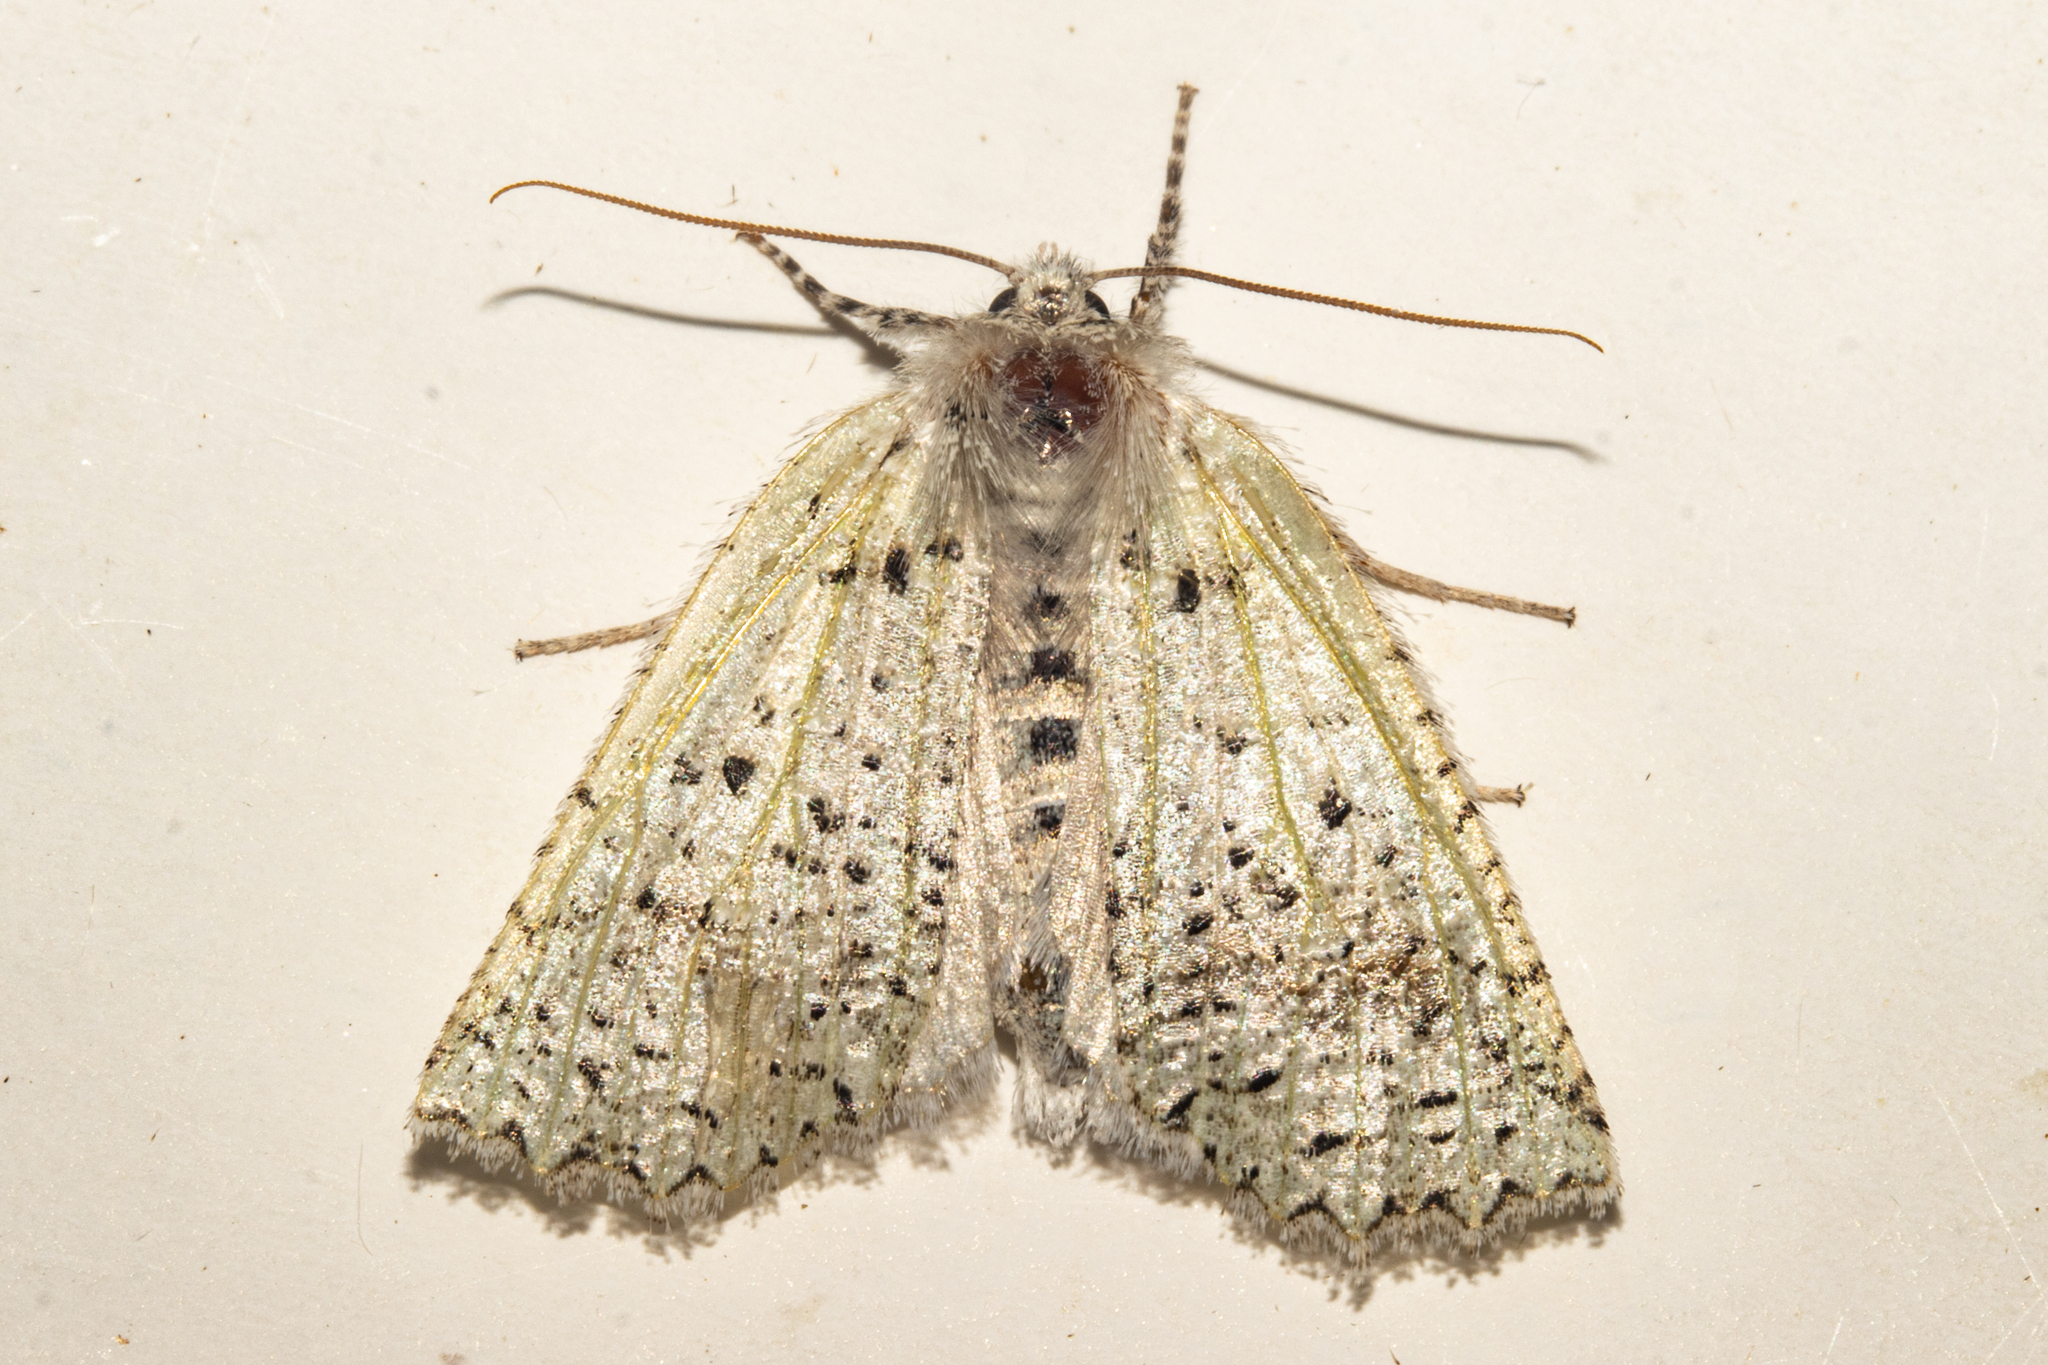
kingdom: Animalia
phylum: Arthropoda
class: Insecta
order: Lepidoptera
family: Geometridae
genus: Declana
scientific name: Declana floccosa
